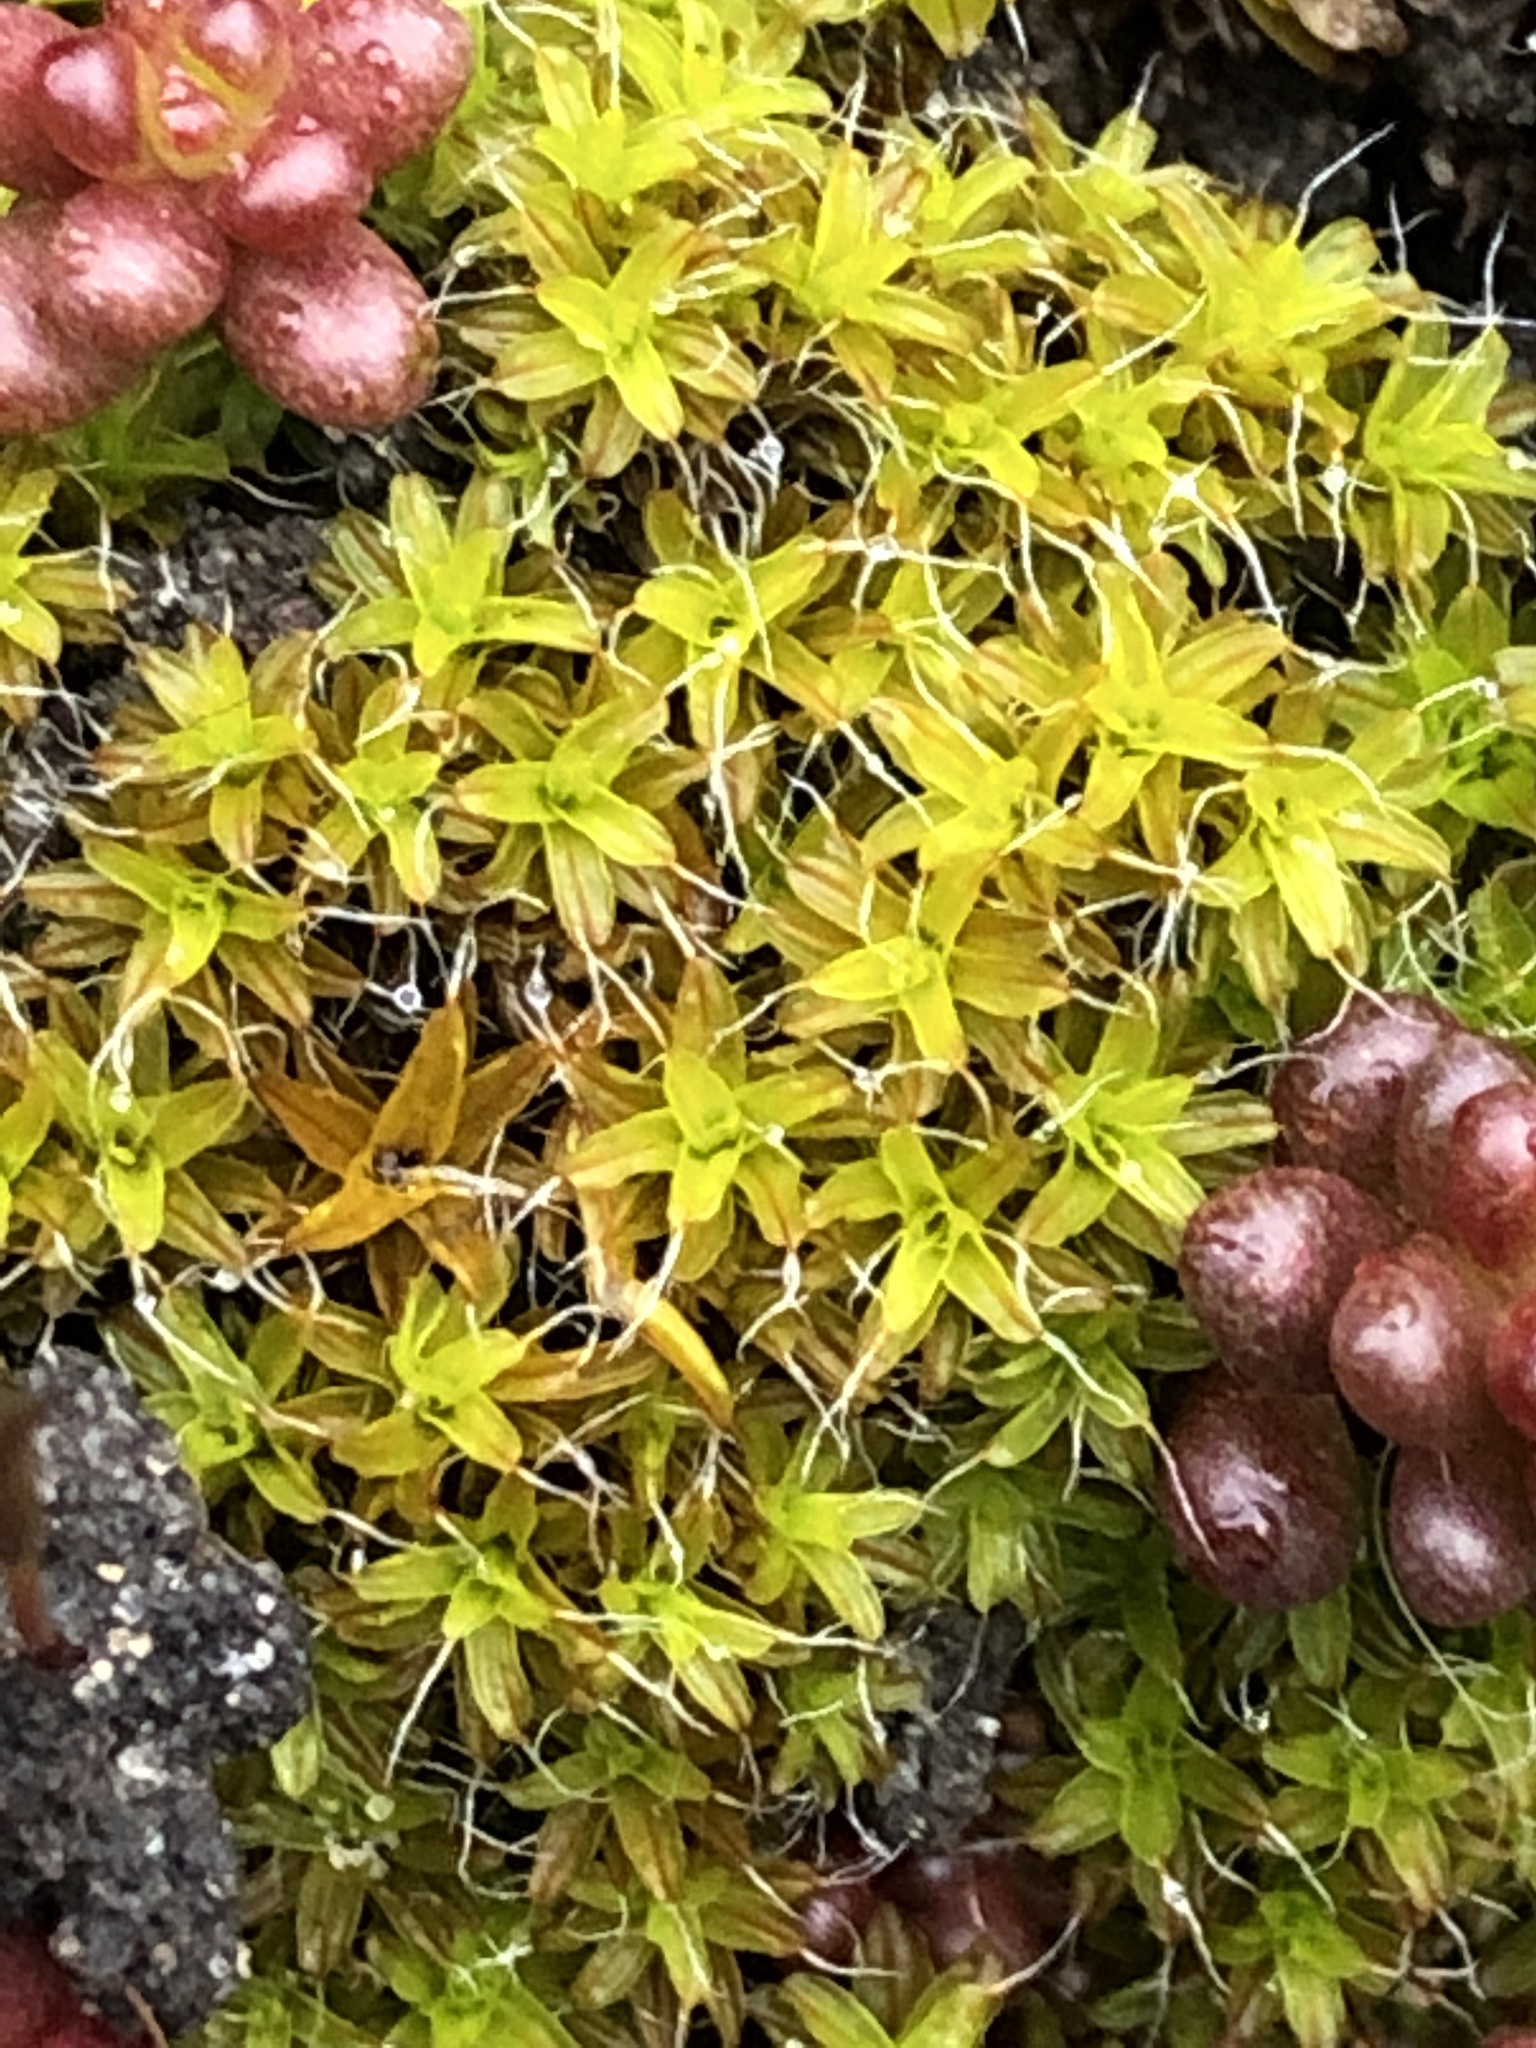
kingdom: Plantae
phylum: Bryophyta
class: Bryopsida
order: Pottiales
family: Pottiaceae
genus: Syntrichia
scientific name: Syntrichia ruralis
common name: Sidewalk screw moss
